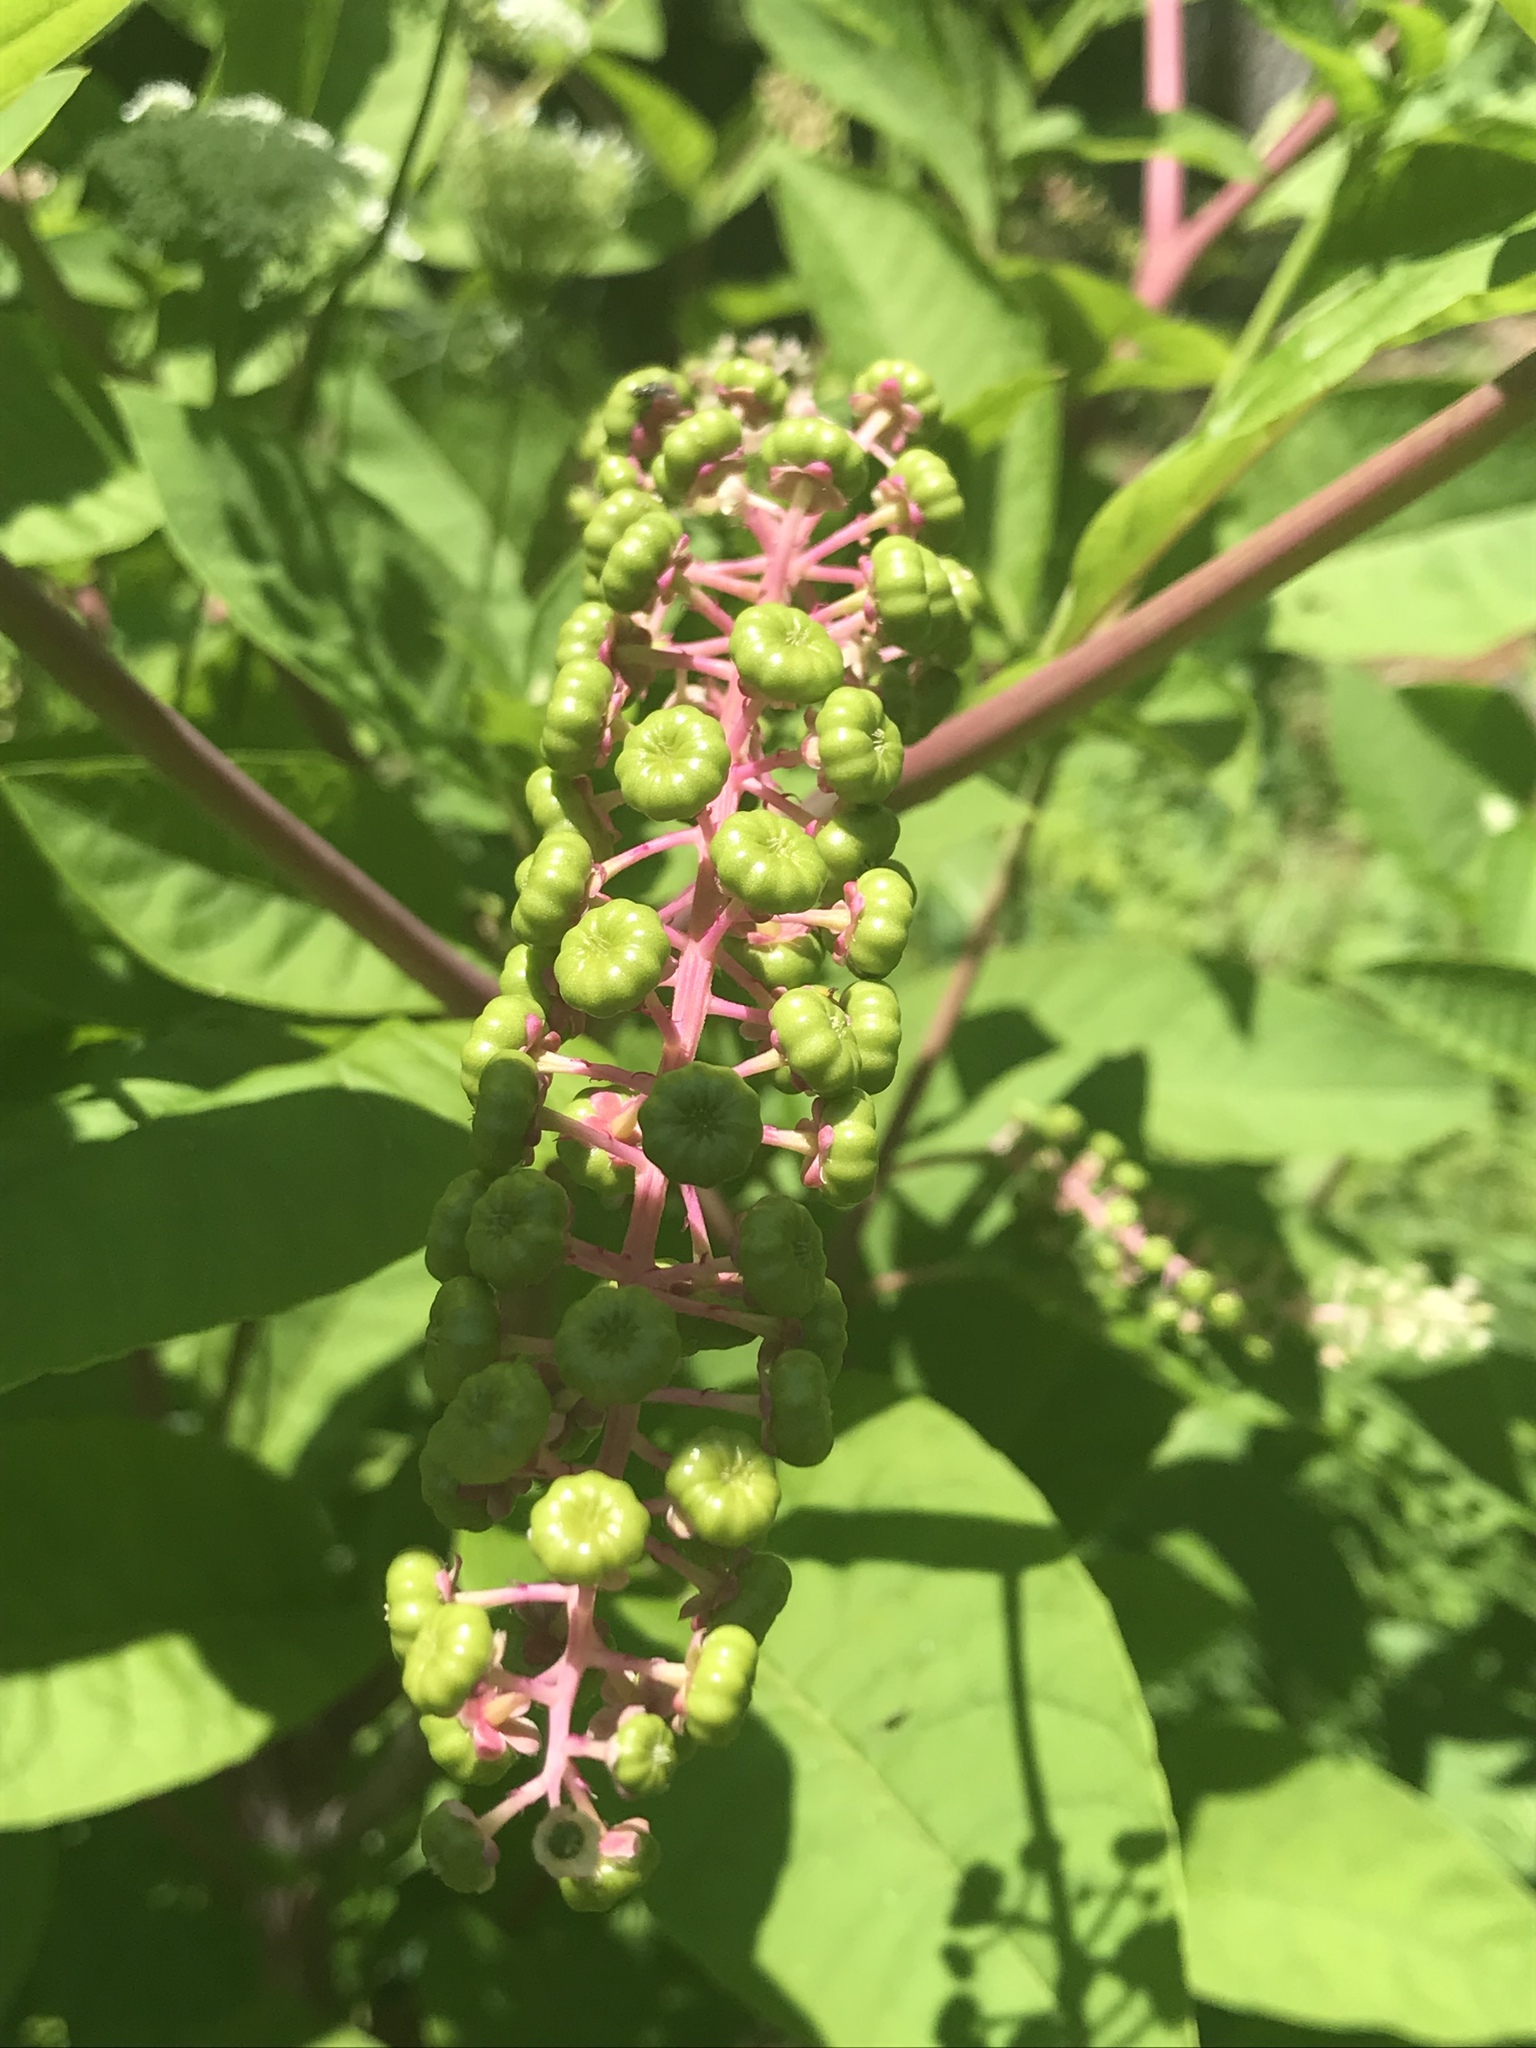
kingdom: Plantae
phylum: Tracheophyta
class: Magnoliopsida
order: Caryophyllales
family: Phytolaccaceae
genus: Phytolacca
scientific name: Phytolacca americana
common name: American pokeweed
